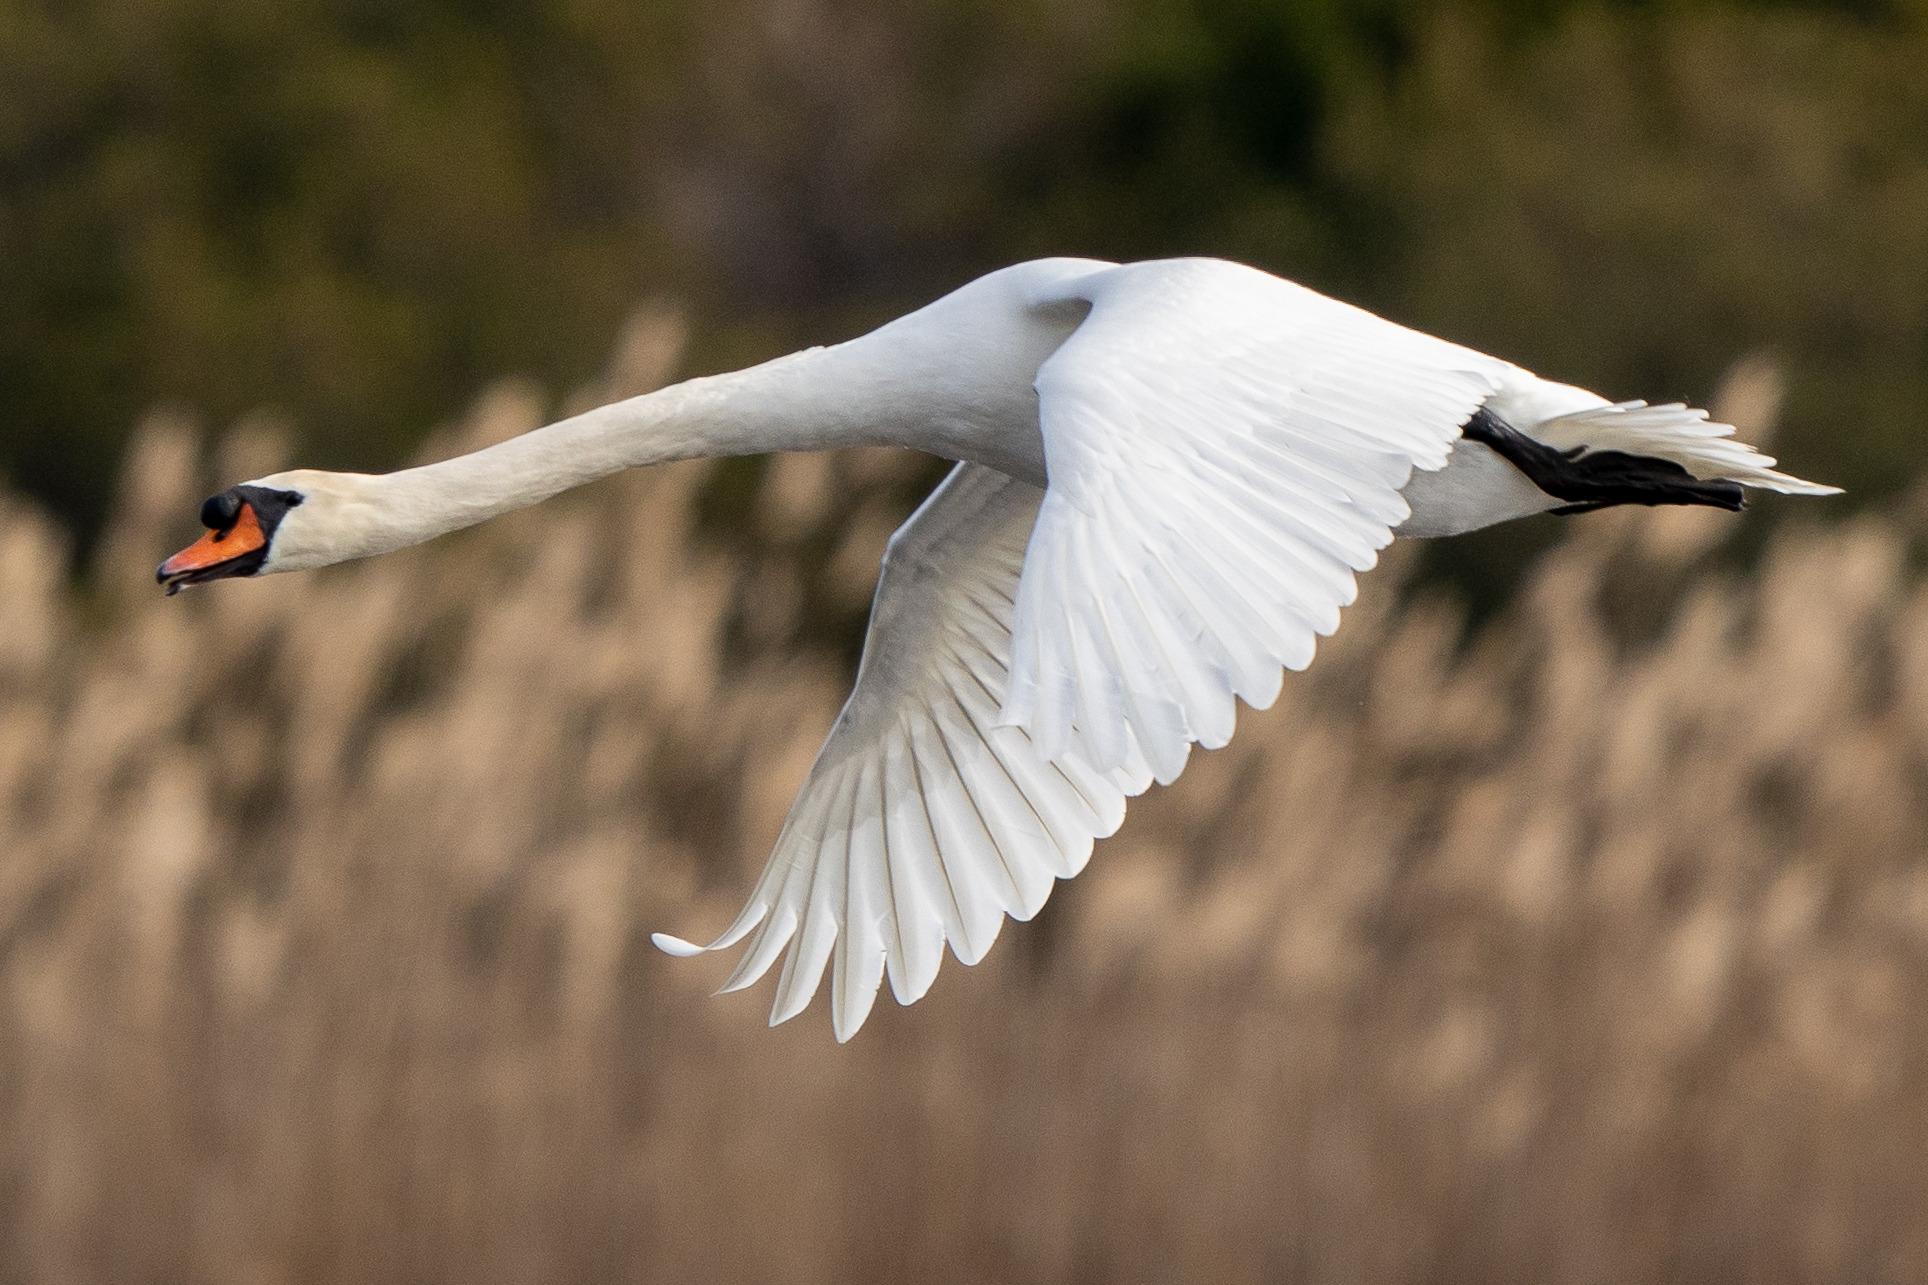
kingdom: Animalia
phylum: Chordata
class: Aves
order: Anseriformes
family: Anatidae
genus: Cygnus
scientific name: Cygnus olor
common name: Mute swan
